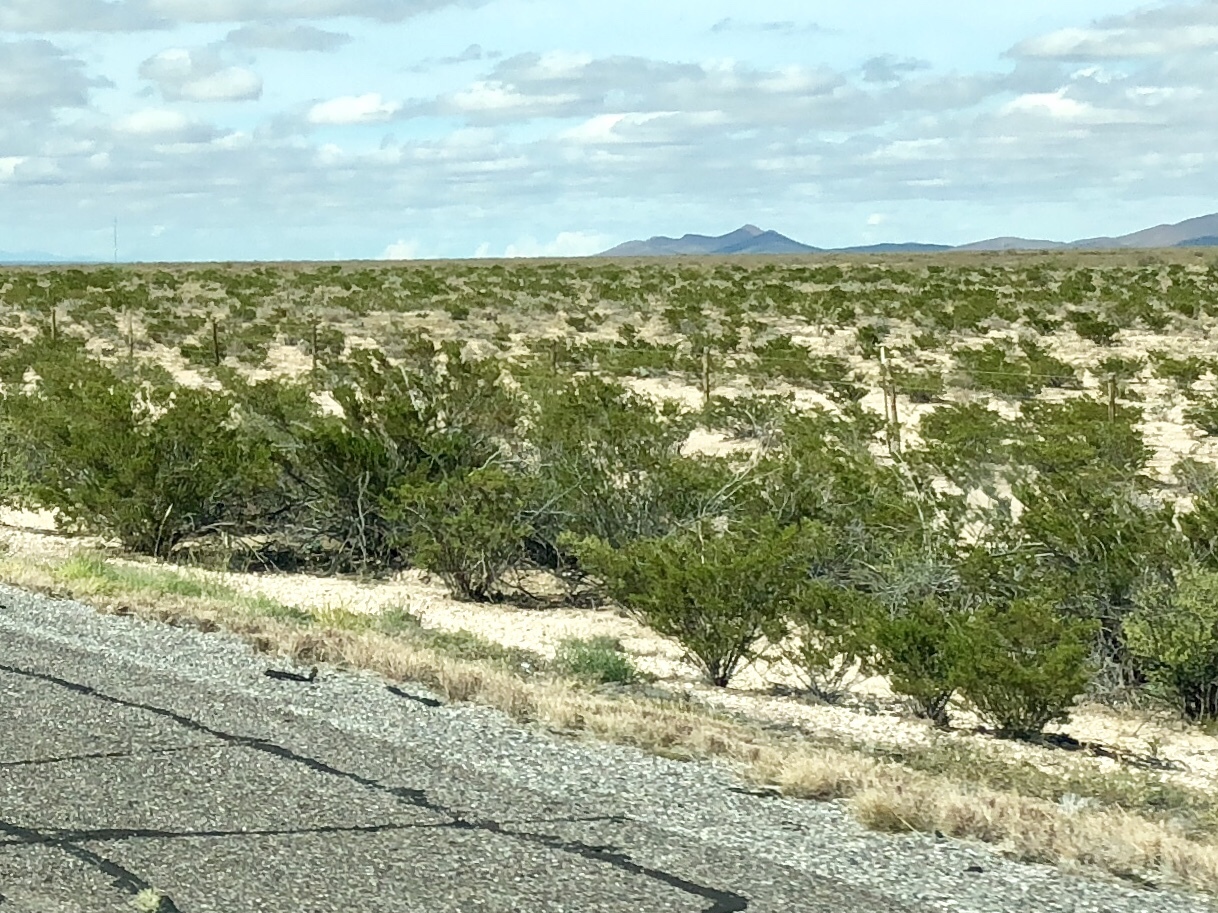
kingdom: Plantae
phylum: Tracheophyta
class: Magnoliopsida
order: Zygophyllales
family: Zygophyllaceae
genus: Larrea
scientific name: Larrea tridentata
